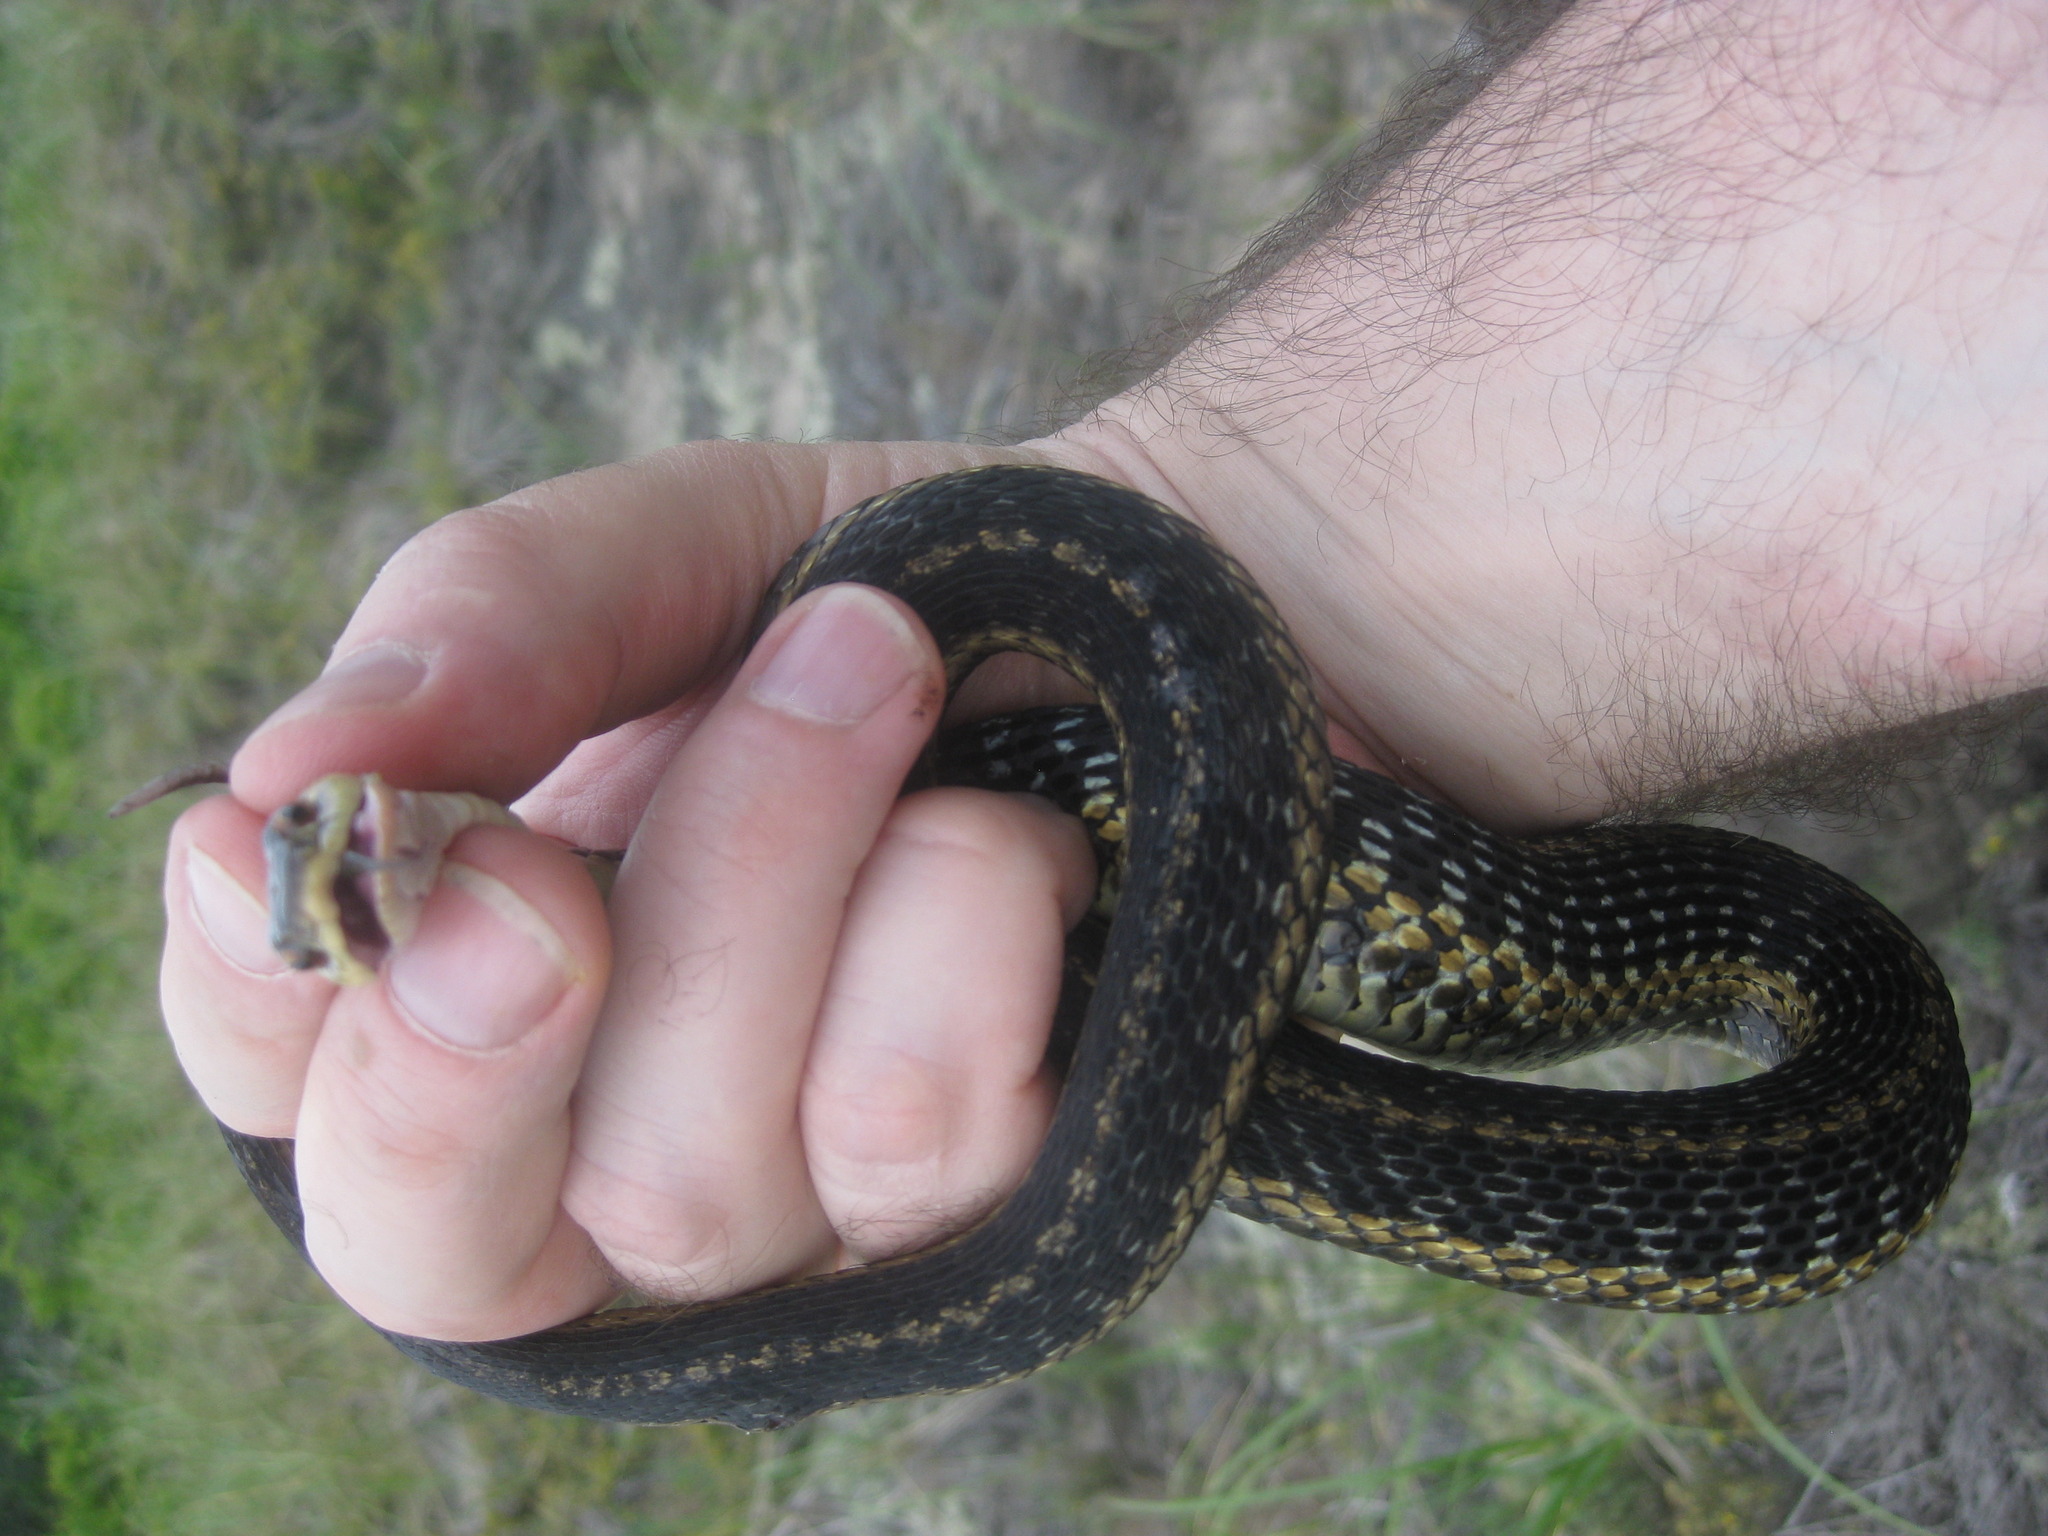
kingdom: Animalia
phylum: Chordata
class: Squamata
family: Colubridae
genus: Thamnophis
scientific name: Thamnophis sirtalis
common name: Common garter snake
